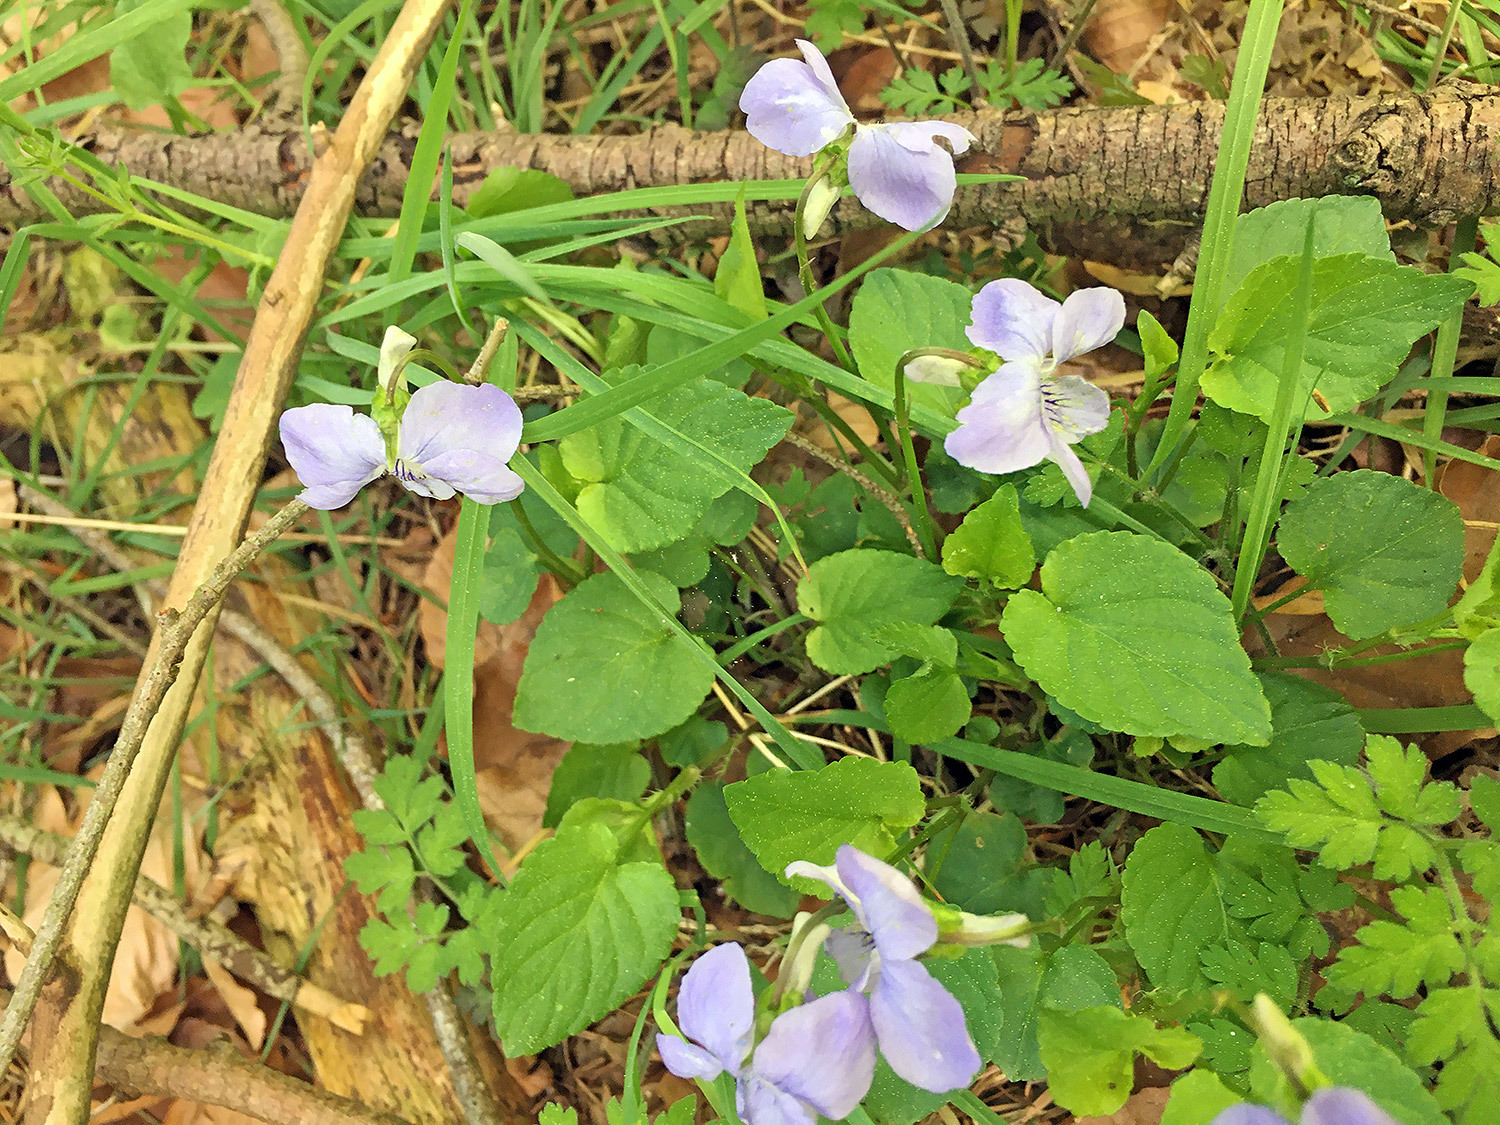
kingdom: Plantae
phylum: Tracheophyta
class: Magnoliopsida
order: Malpighiales
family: Violaceae
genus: Viola
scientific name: Viola riviniana
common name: Common dog-violet
